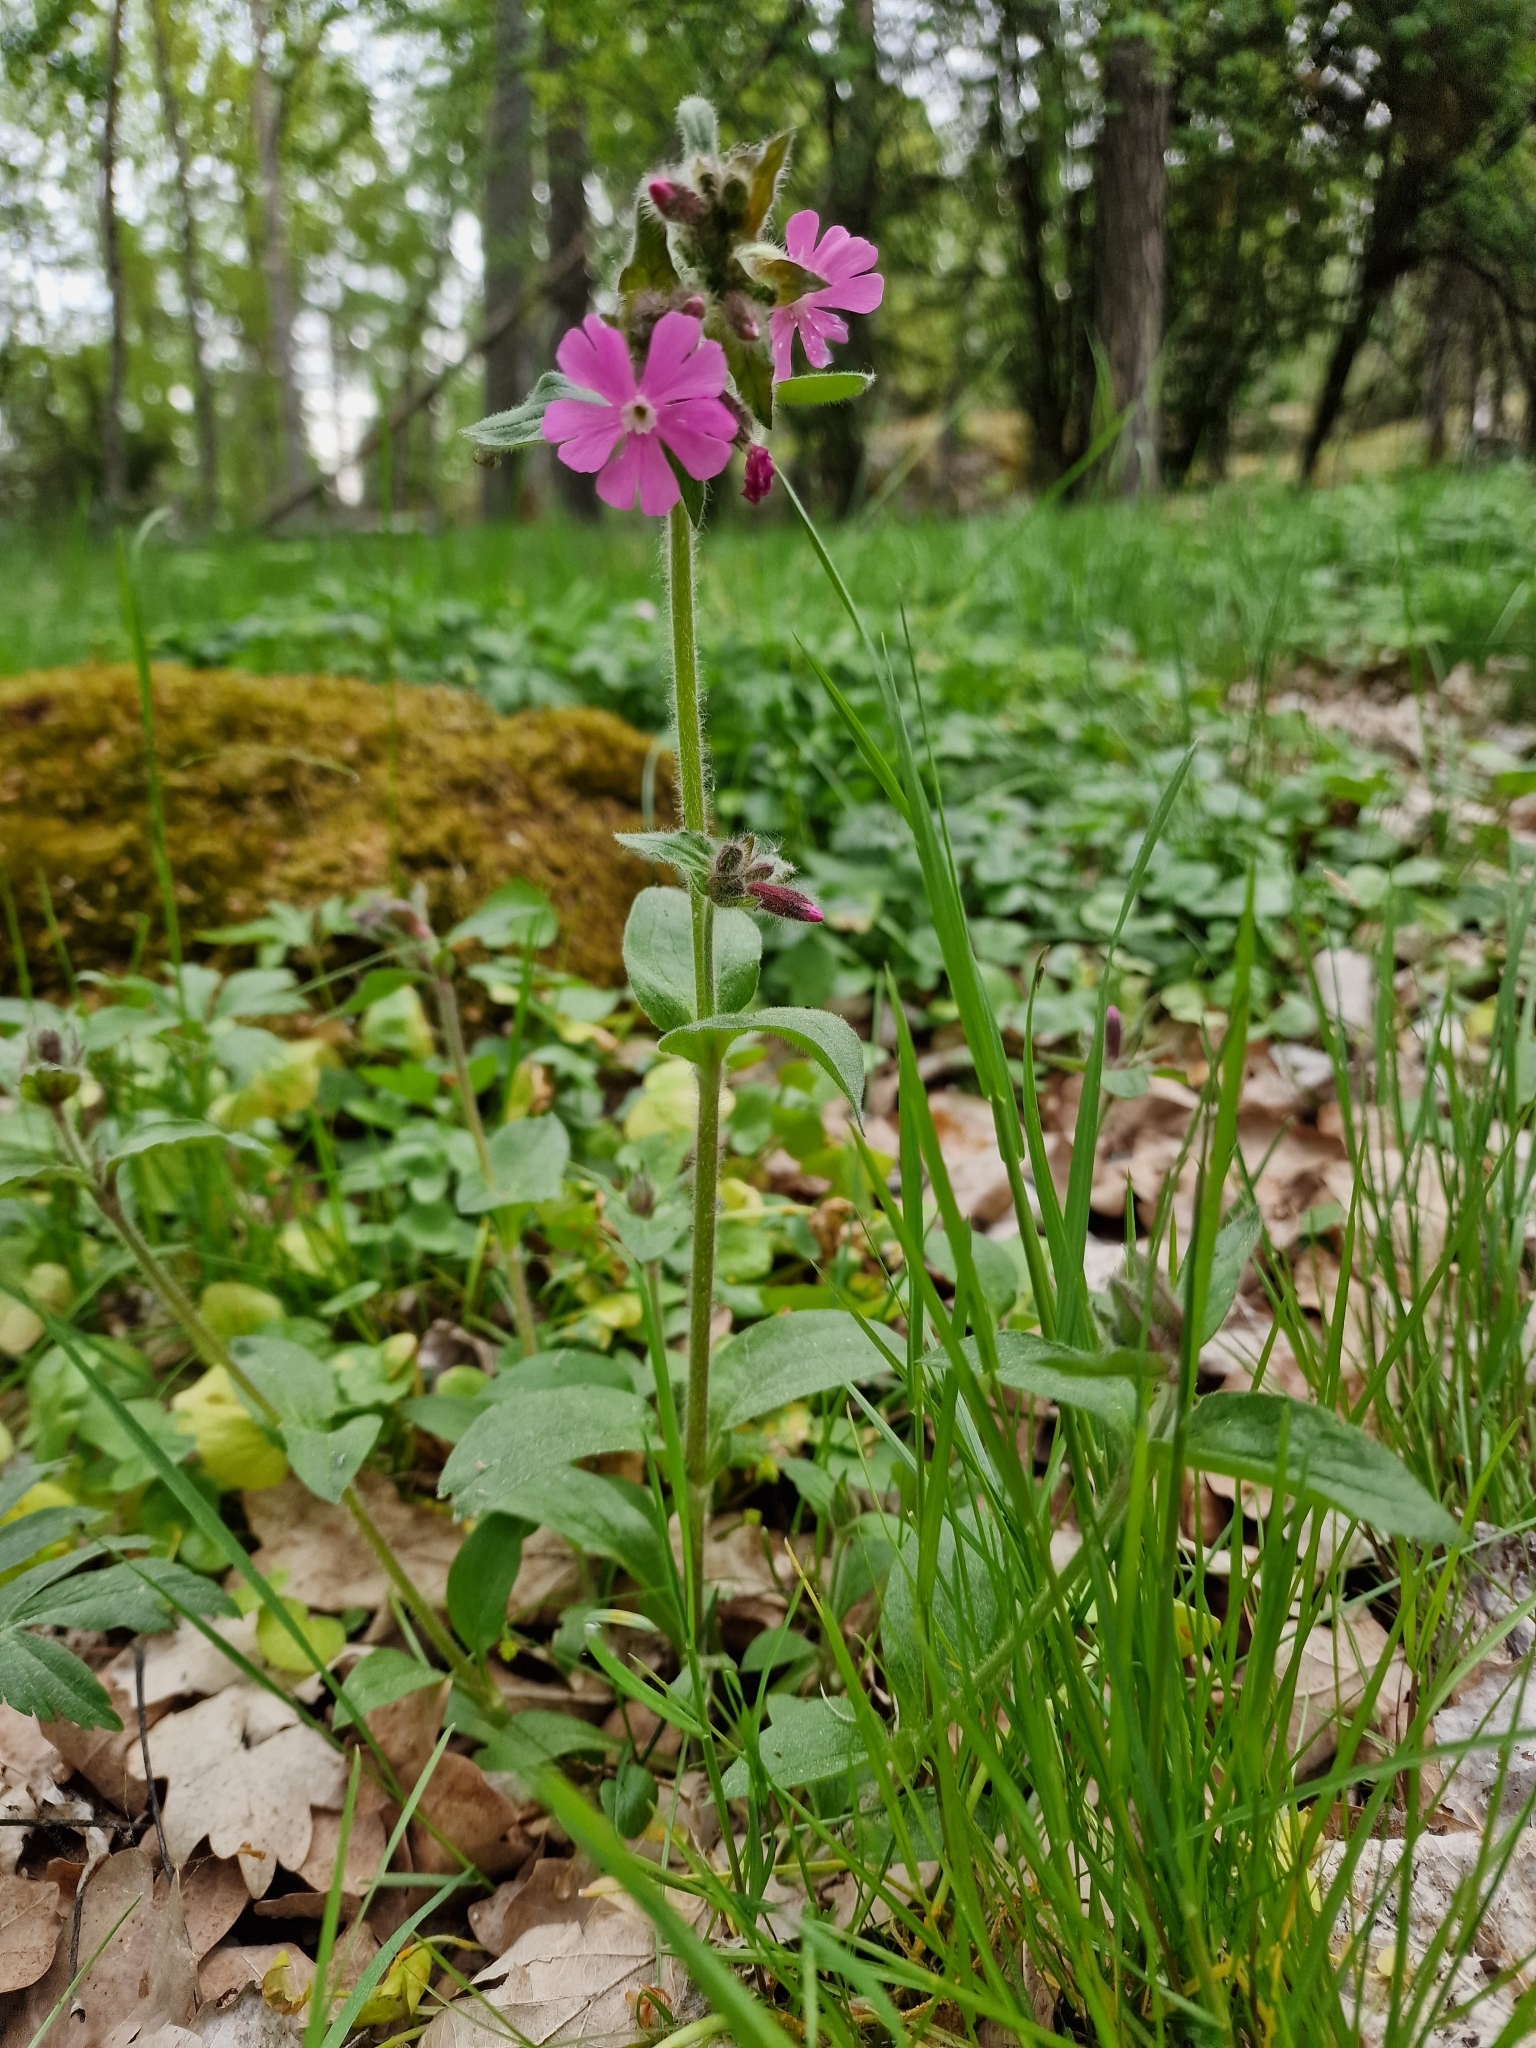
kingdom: Plantae
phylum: Tracheophyta
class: Magnoliopsida
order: Caryophyllales
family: Caryophyllaceae
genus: Silene
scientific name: Silene dioica
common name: Red campion
